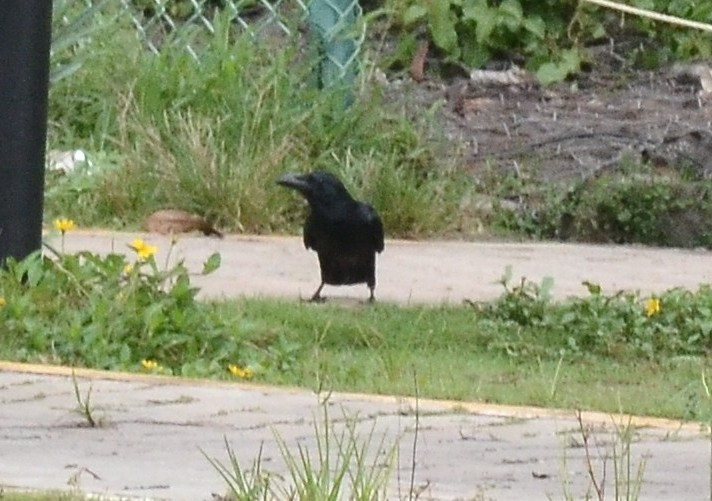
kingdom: Animalia
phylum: Chordata
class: Aves
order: Passeriformes
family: Corvidae
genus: Corvus
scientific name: Corvus macrorhynchos
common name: Large-billed crow
